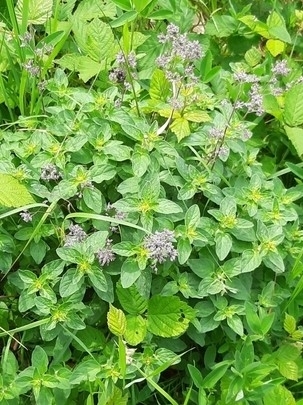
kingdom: Plantae
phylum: Tracheophyta
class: Magnoliopsida
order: Lamiales
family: Lamiaceae
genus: Origanum
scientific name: Origanum vulgare
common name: Wild marjoram
